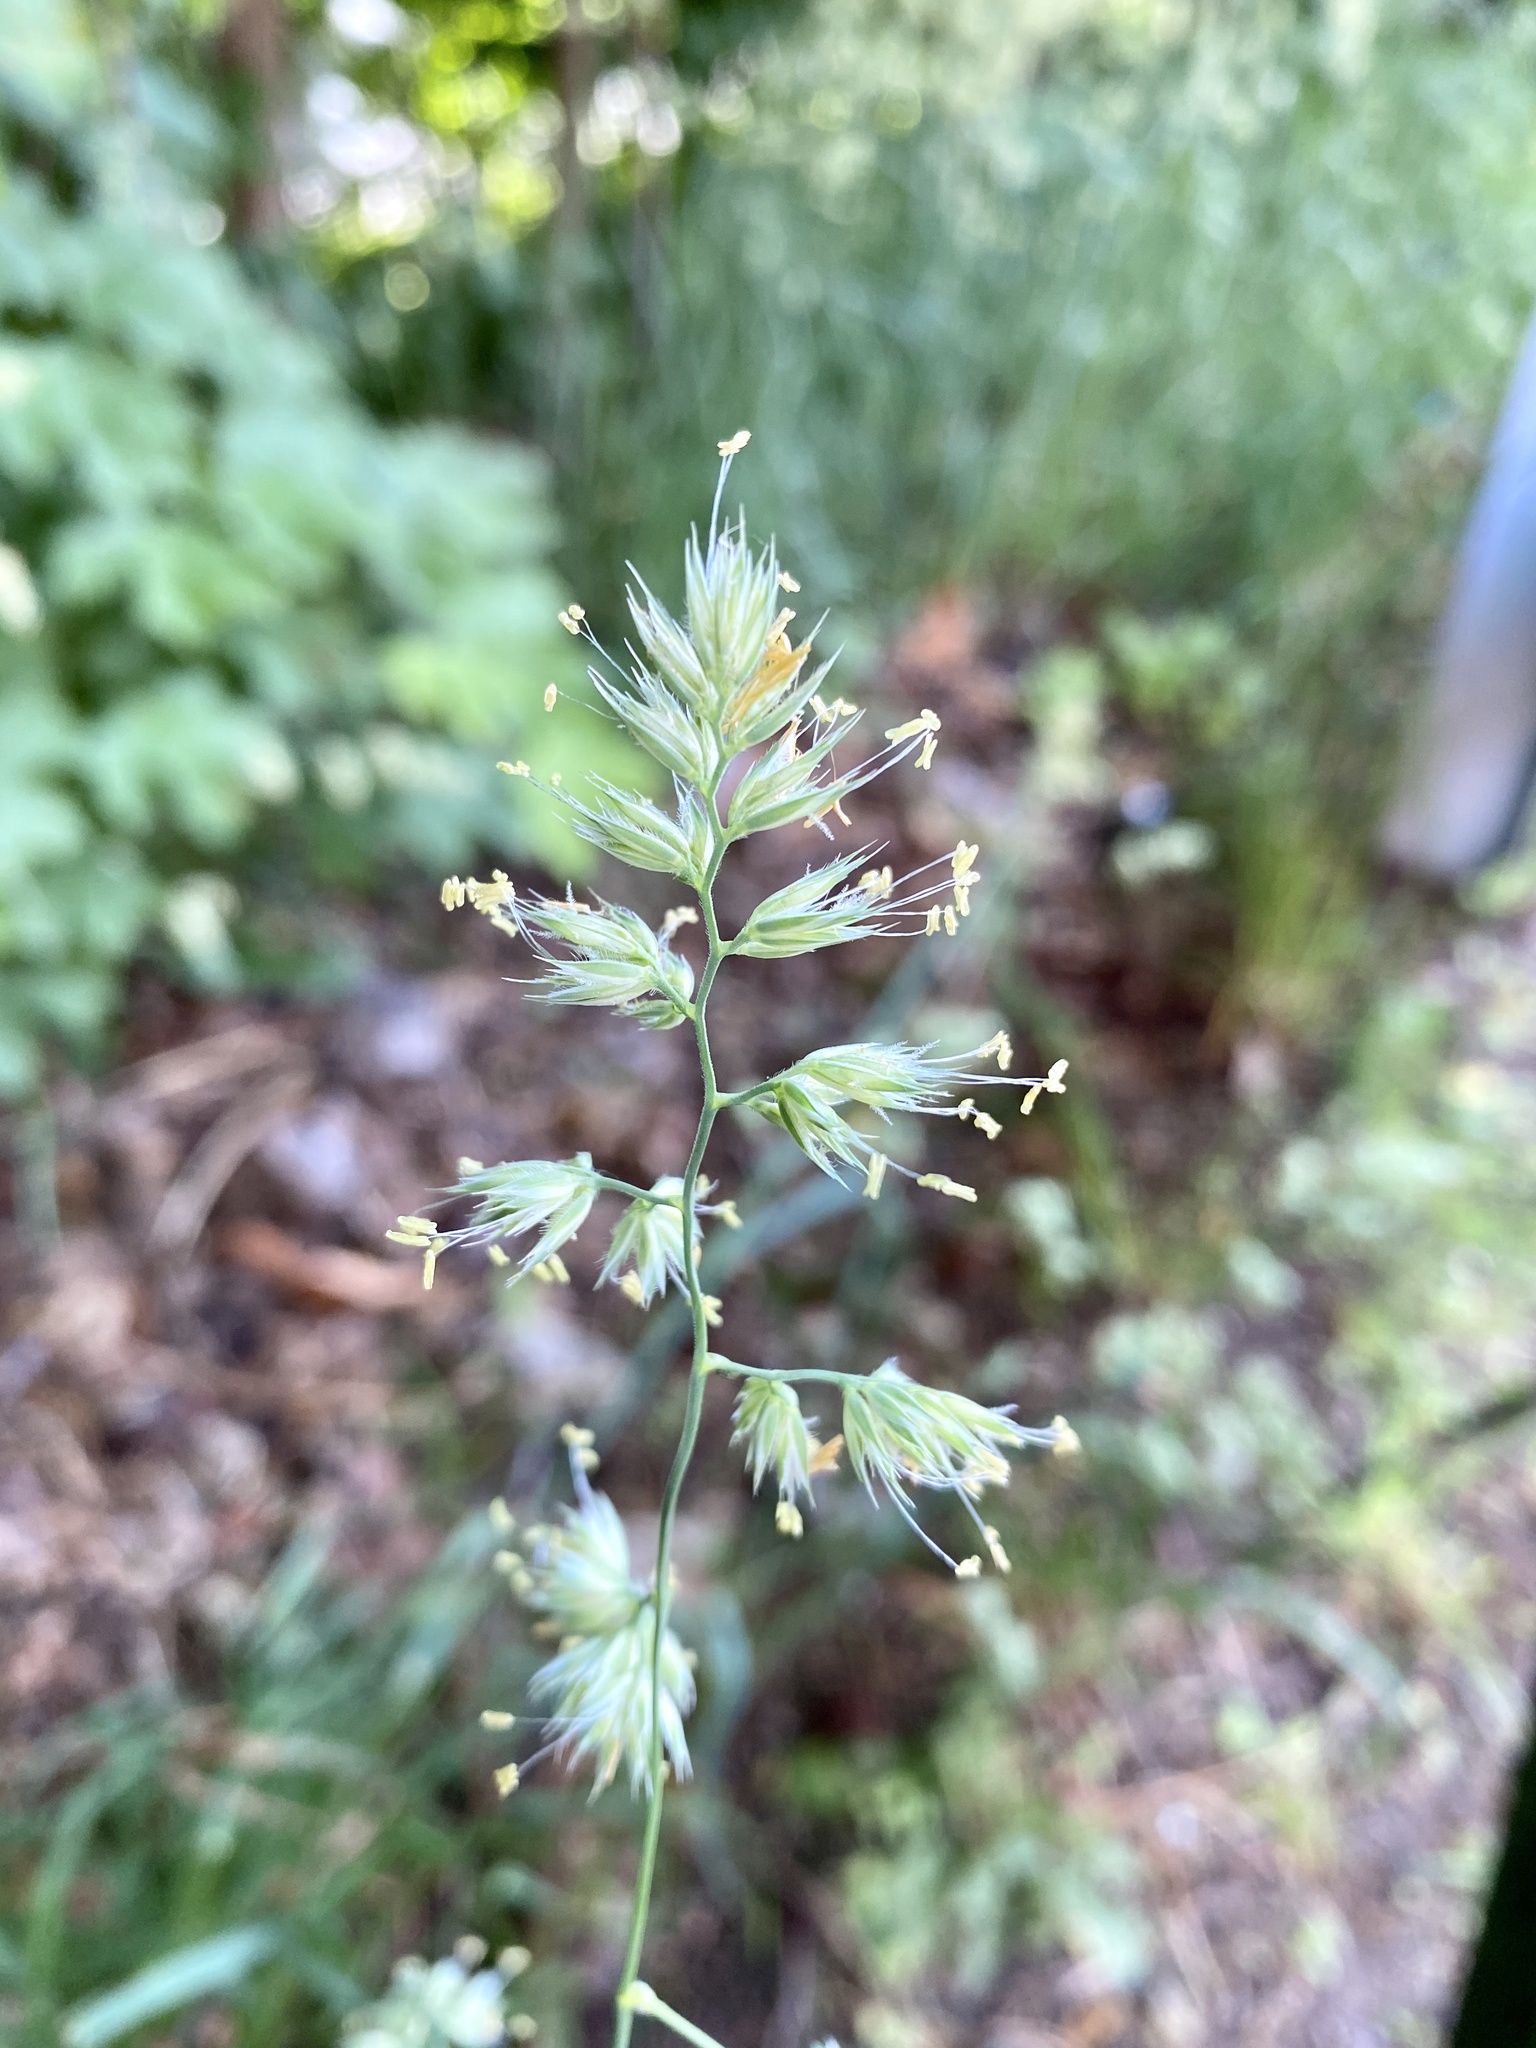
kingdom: Plantae
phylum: Tracheophyta
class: Liliopsida
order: Poales
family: Poaceae
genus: Dactylis
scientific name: Dactylis glomerata
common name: Orchardgrass
